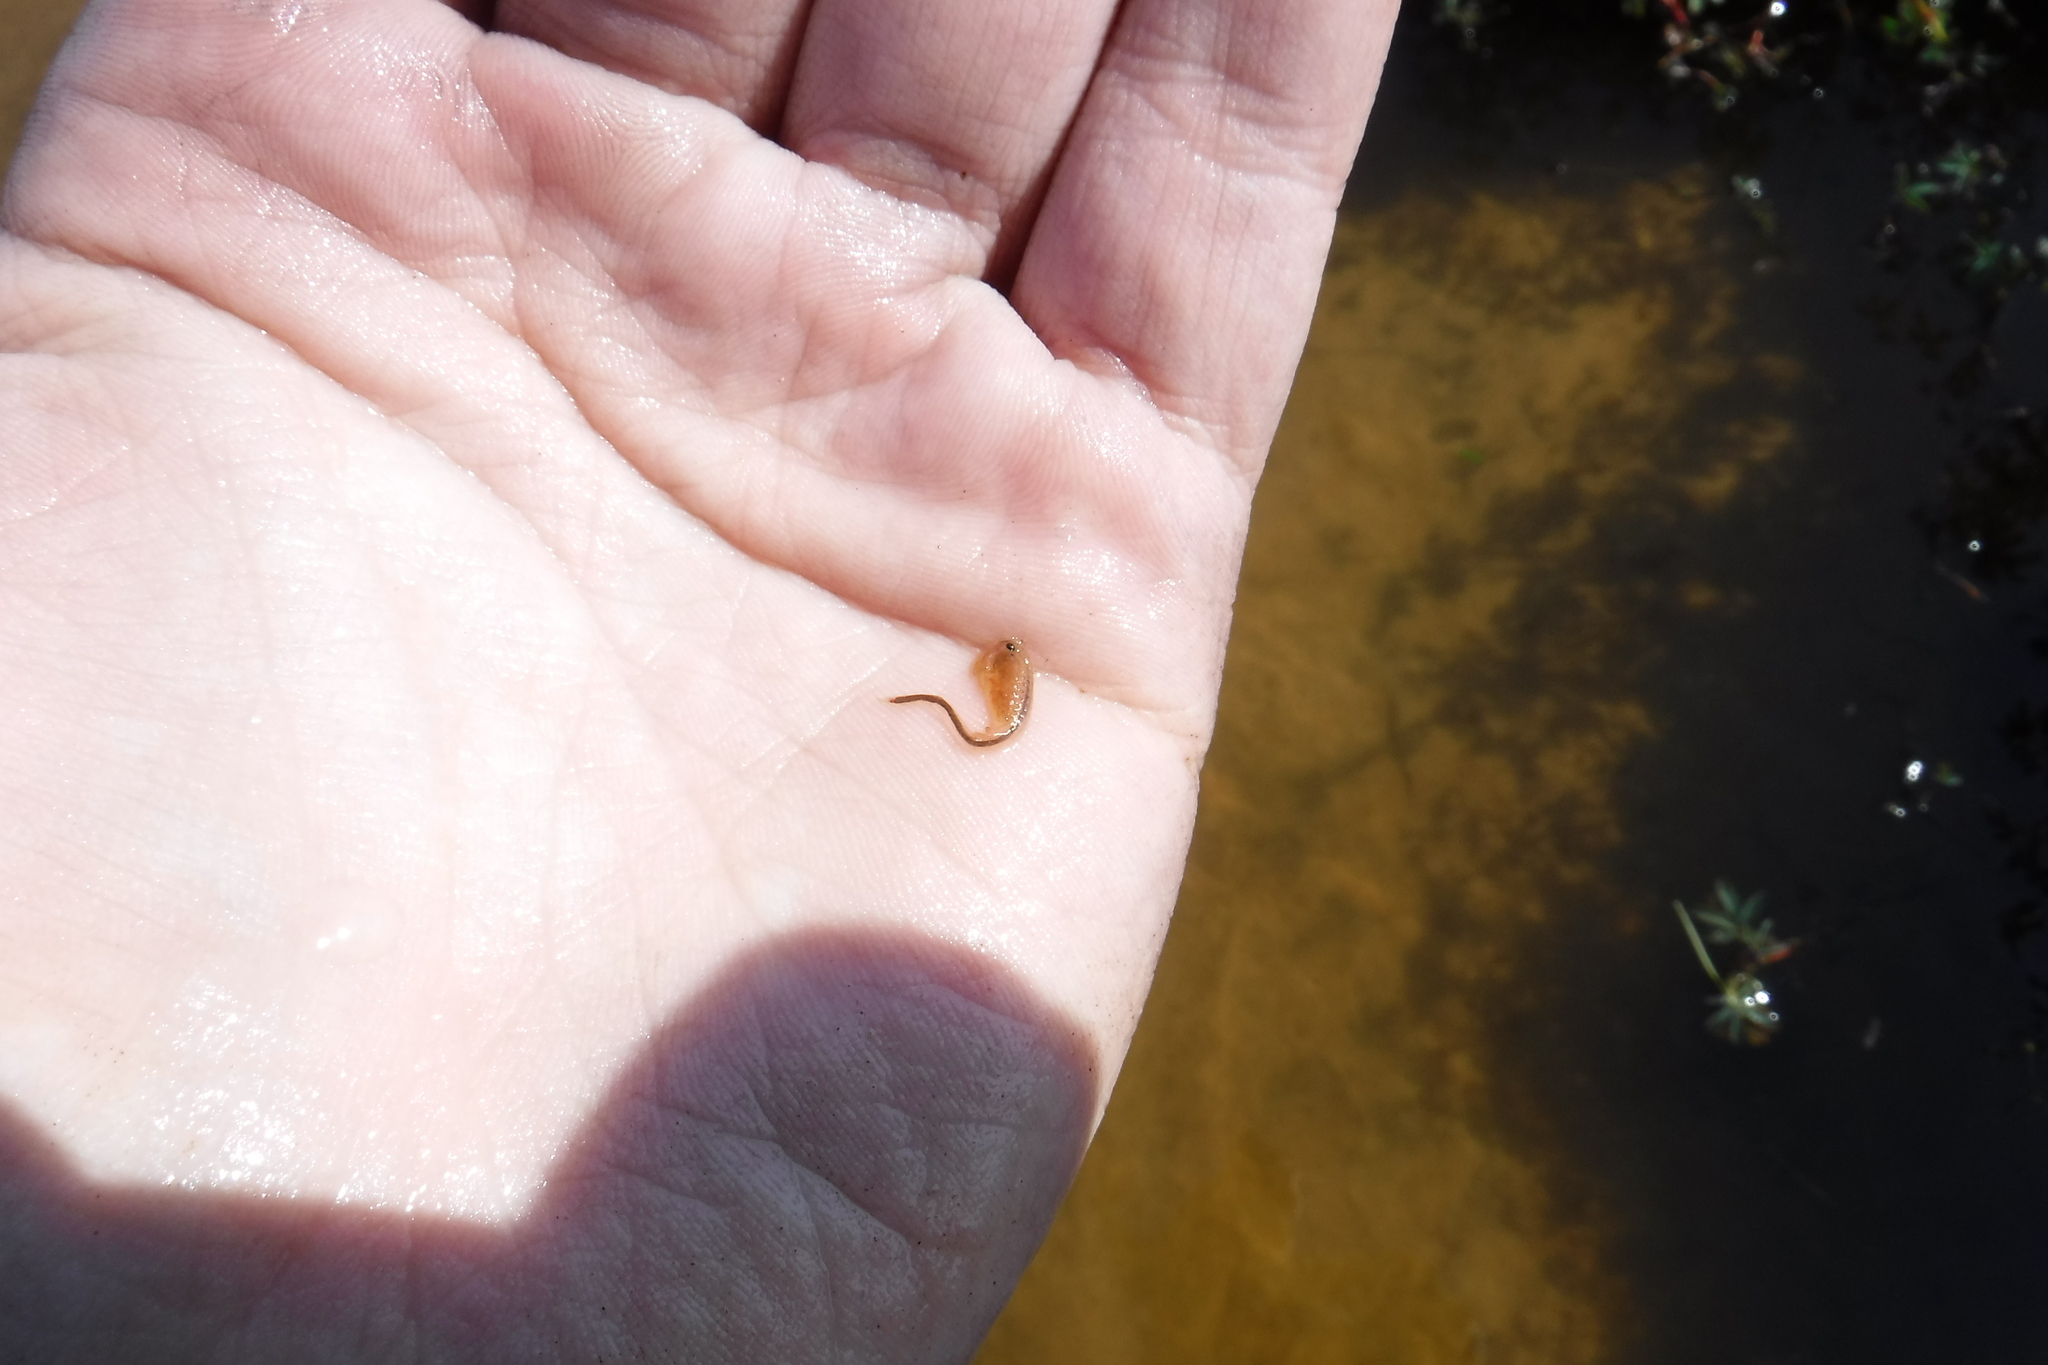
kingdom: Animalia
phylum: Arthropoda
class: Branchiopoda
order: Anostraca
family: Branchinectidae
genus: Branchinecta
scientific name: Branchinecta paludosa
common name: Circumpolar fairy shrimp
